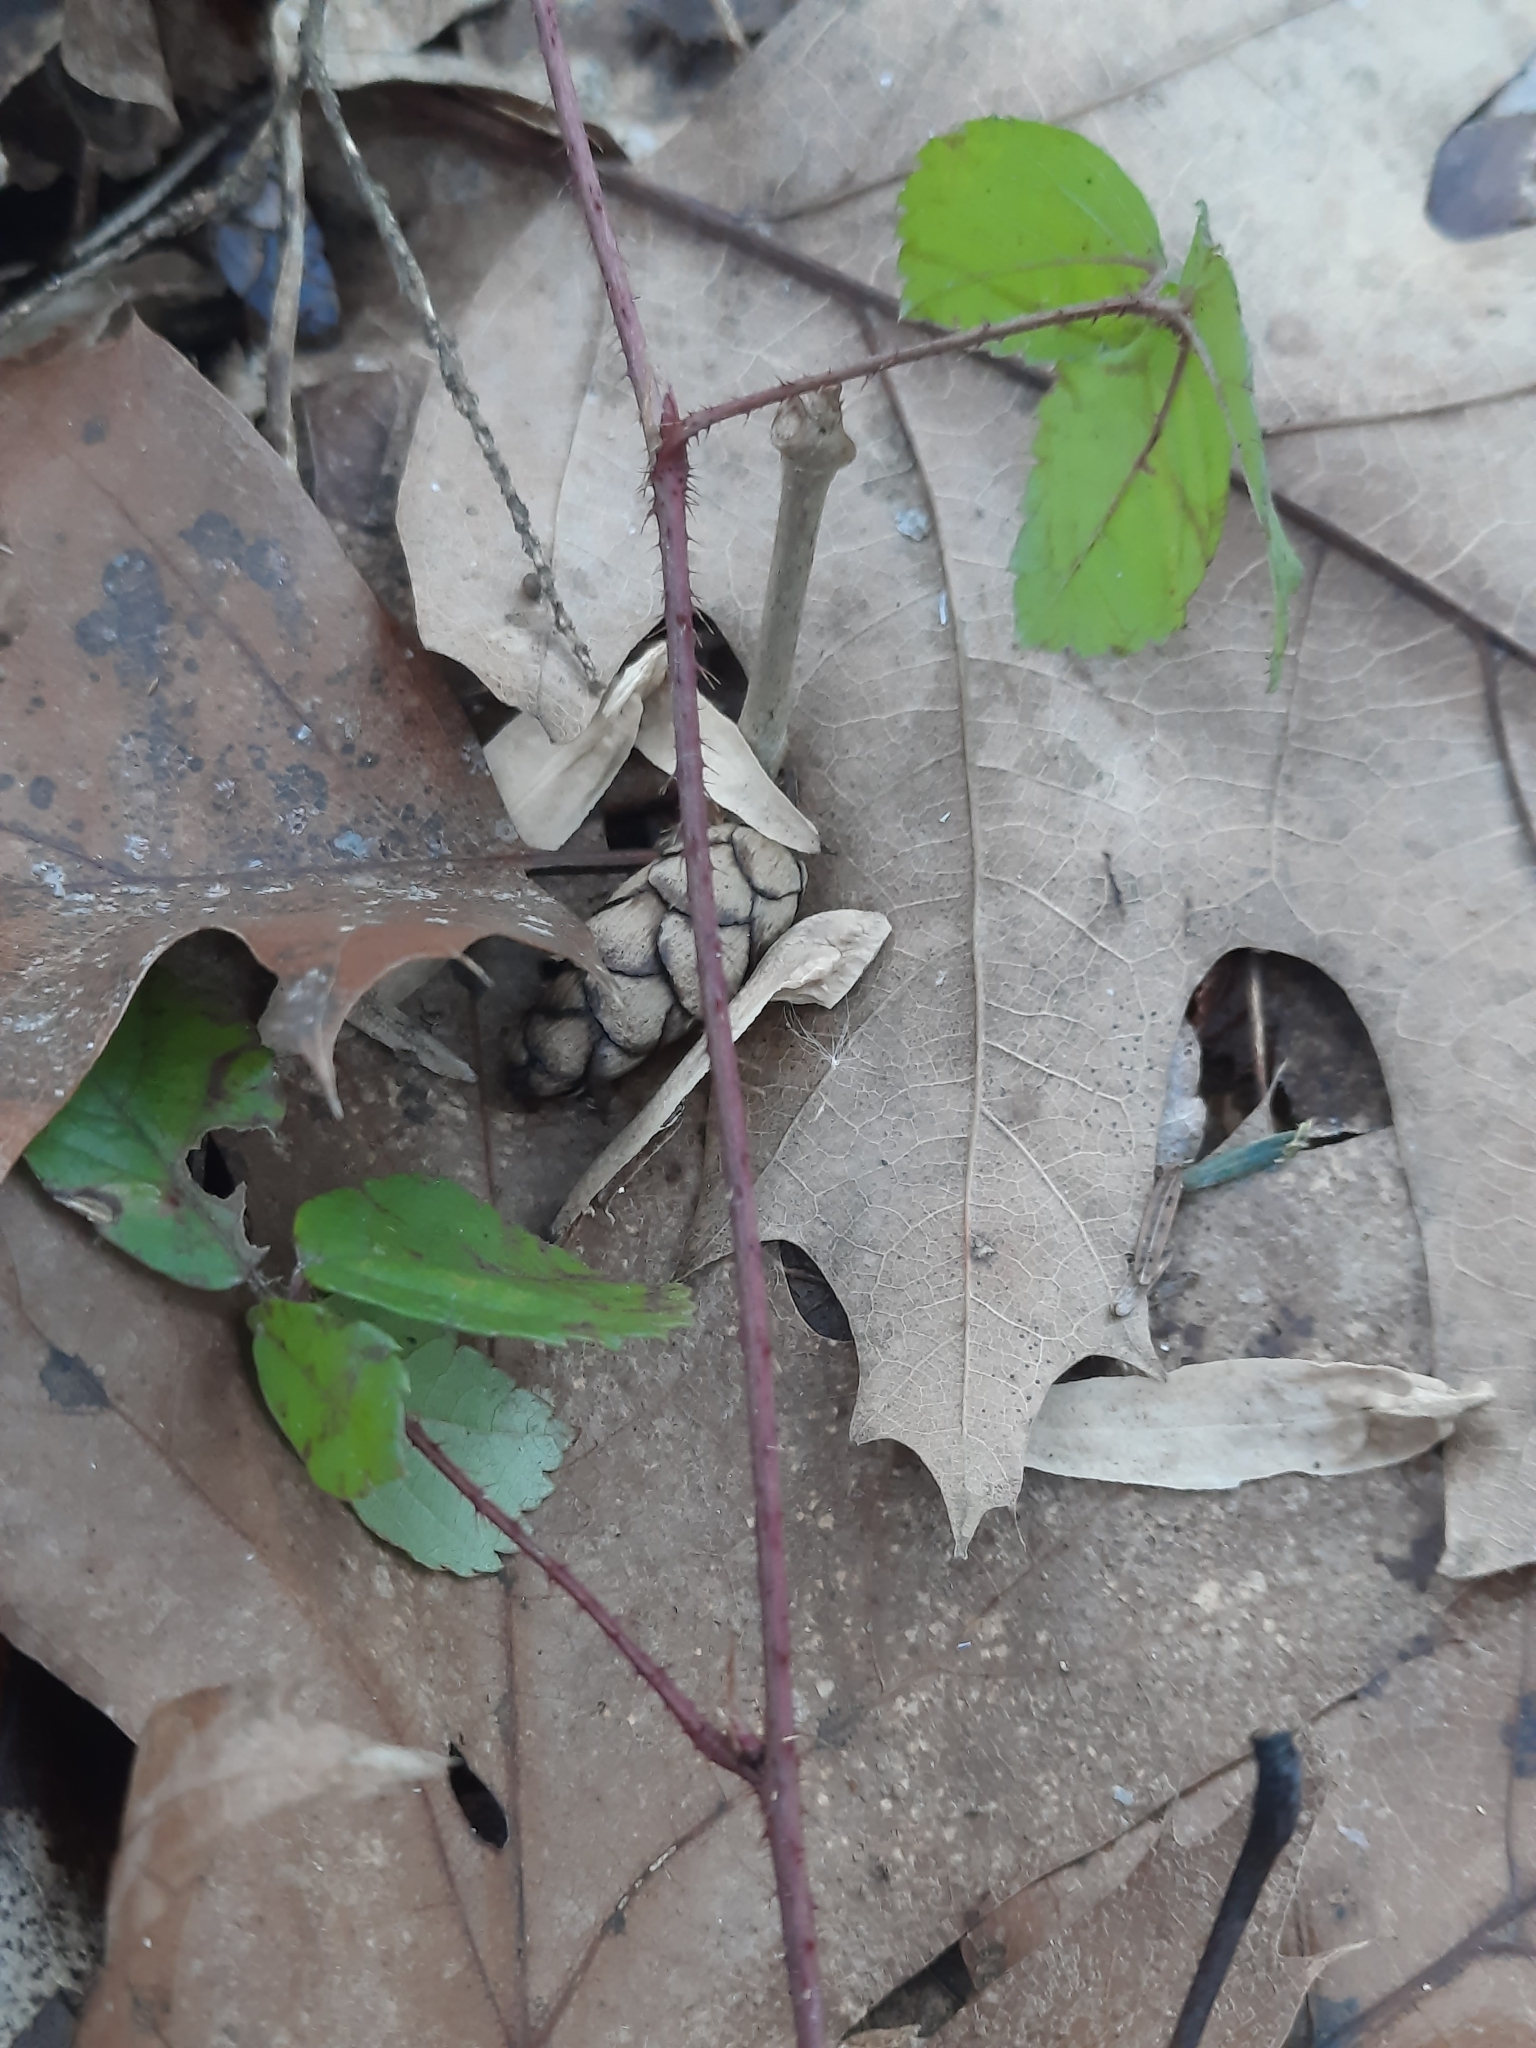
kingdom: Plantae
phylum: Tracheophyta
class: Magnoliopsida
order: Rosales
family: Rosaceae
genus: Rubus
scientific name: Rubus hispidus
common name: Running blackberry
